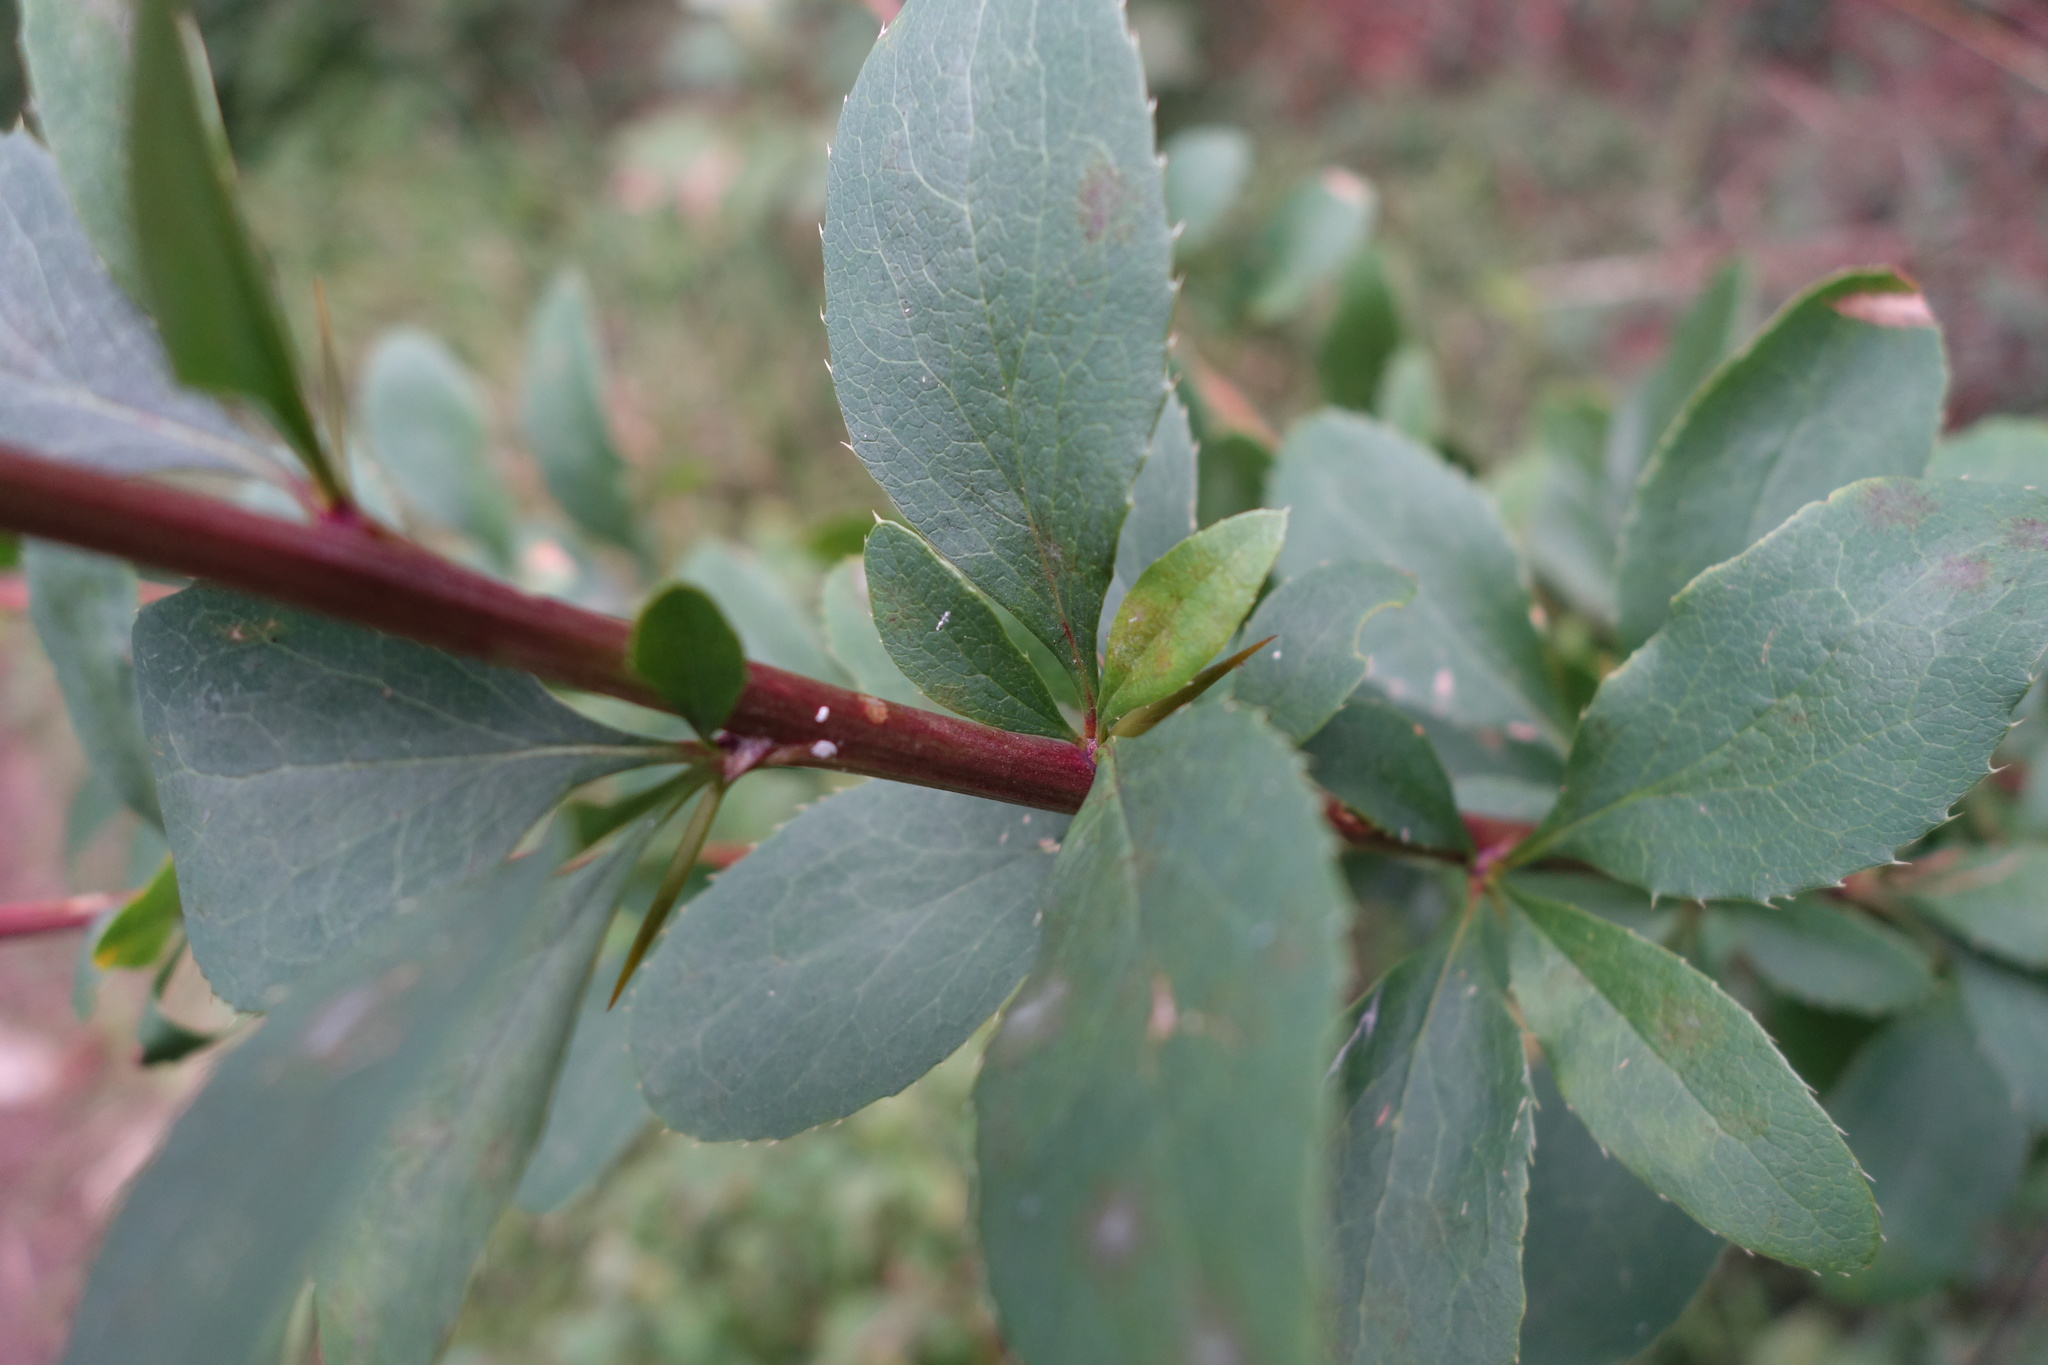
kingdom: Plantae
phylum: Tracheophyta
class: Magnoliopsida
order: Ranunculales
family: Berberidaceae
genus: Berberis
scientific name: Berberis vulgaris
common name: Barberry
